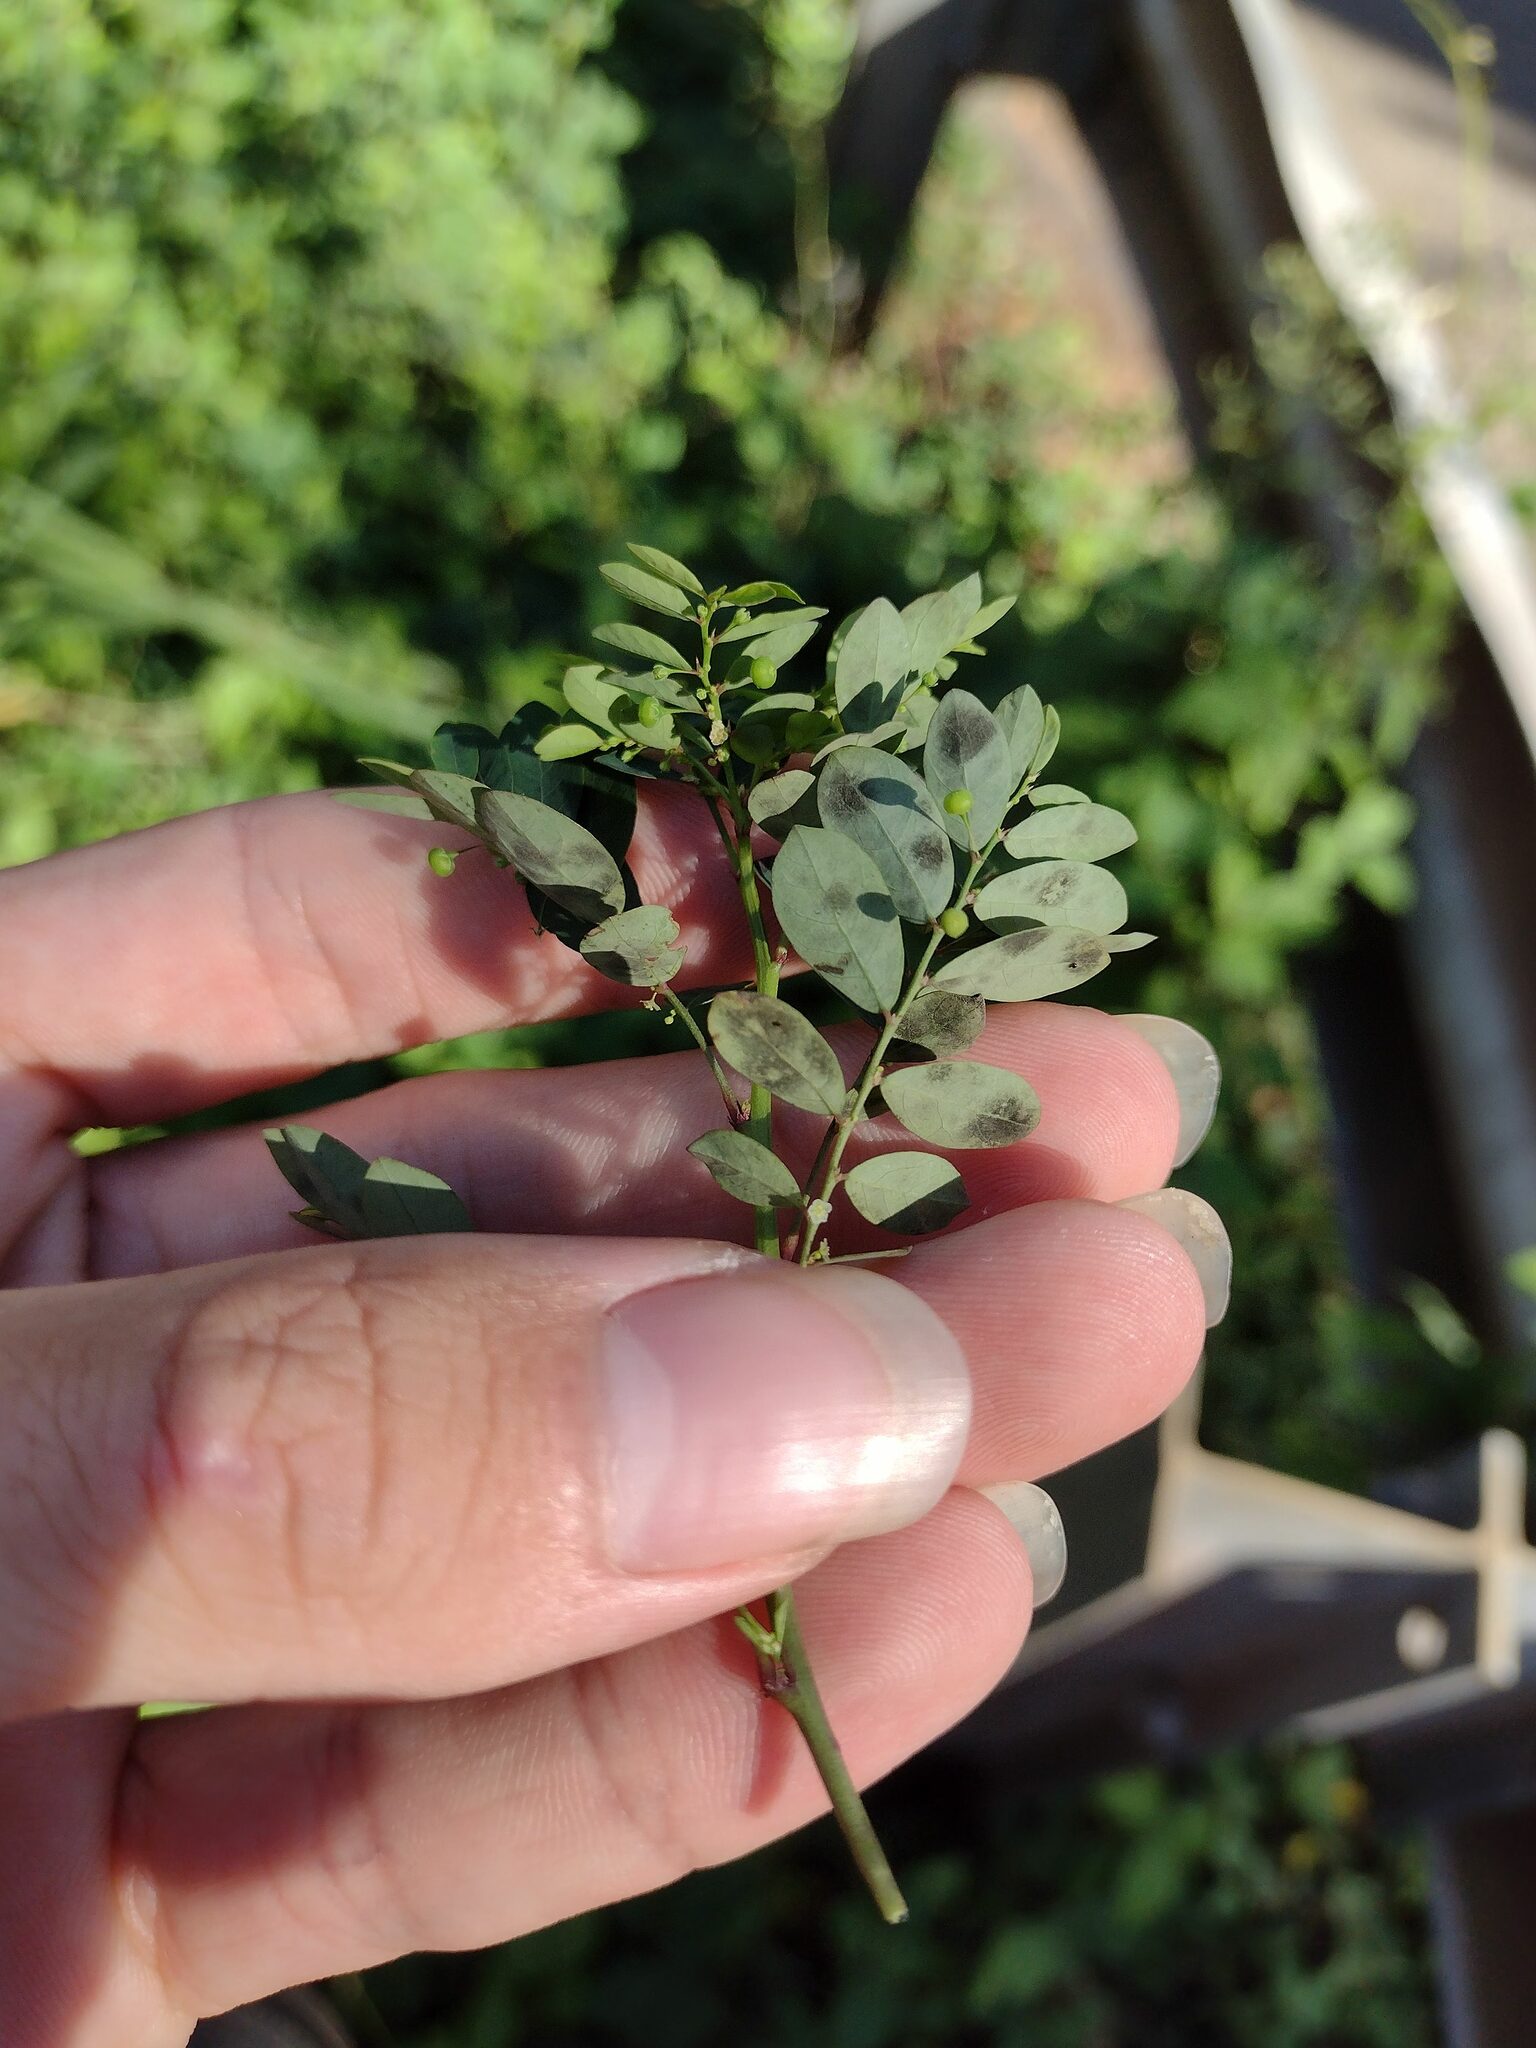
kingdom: Plantae
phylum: Tracheophyta
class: Magnoliopsida
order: Malpighiales
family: Phyllanthaceae
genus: Phyllanthus
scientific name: Phyllanthus tenellus
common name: Mascarene island leaf-flower
